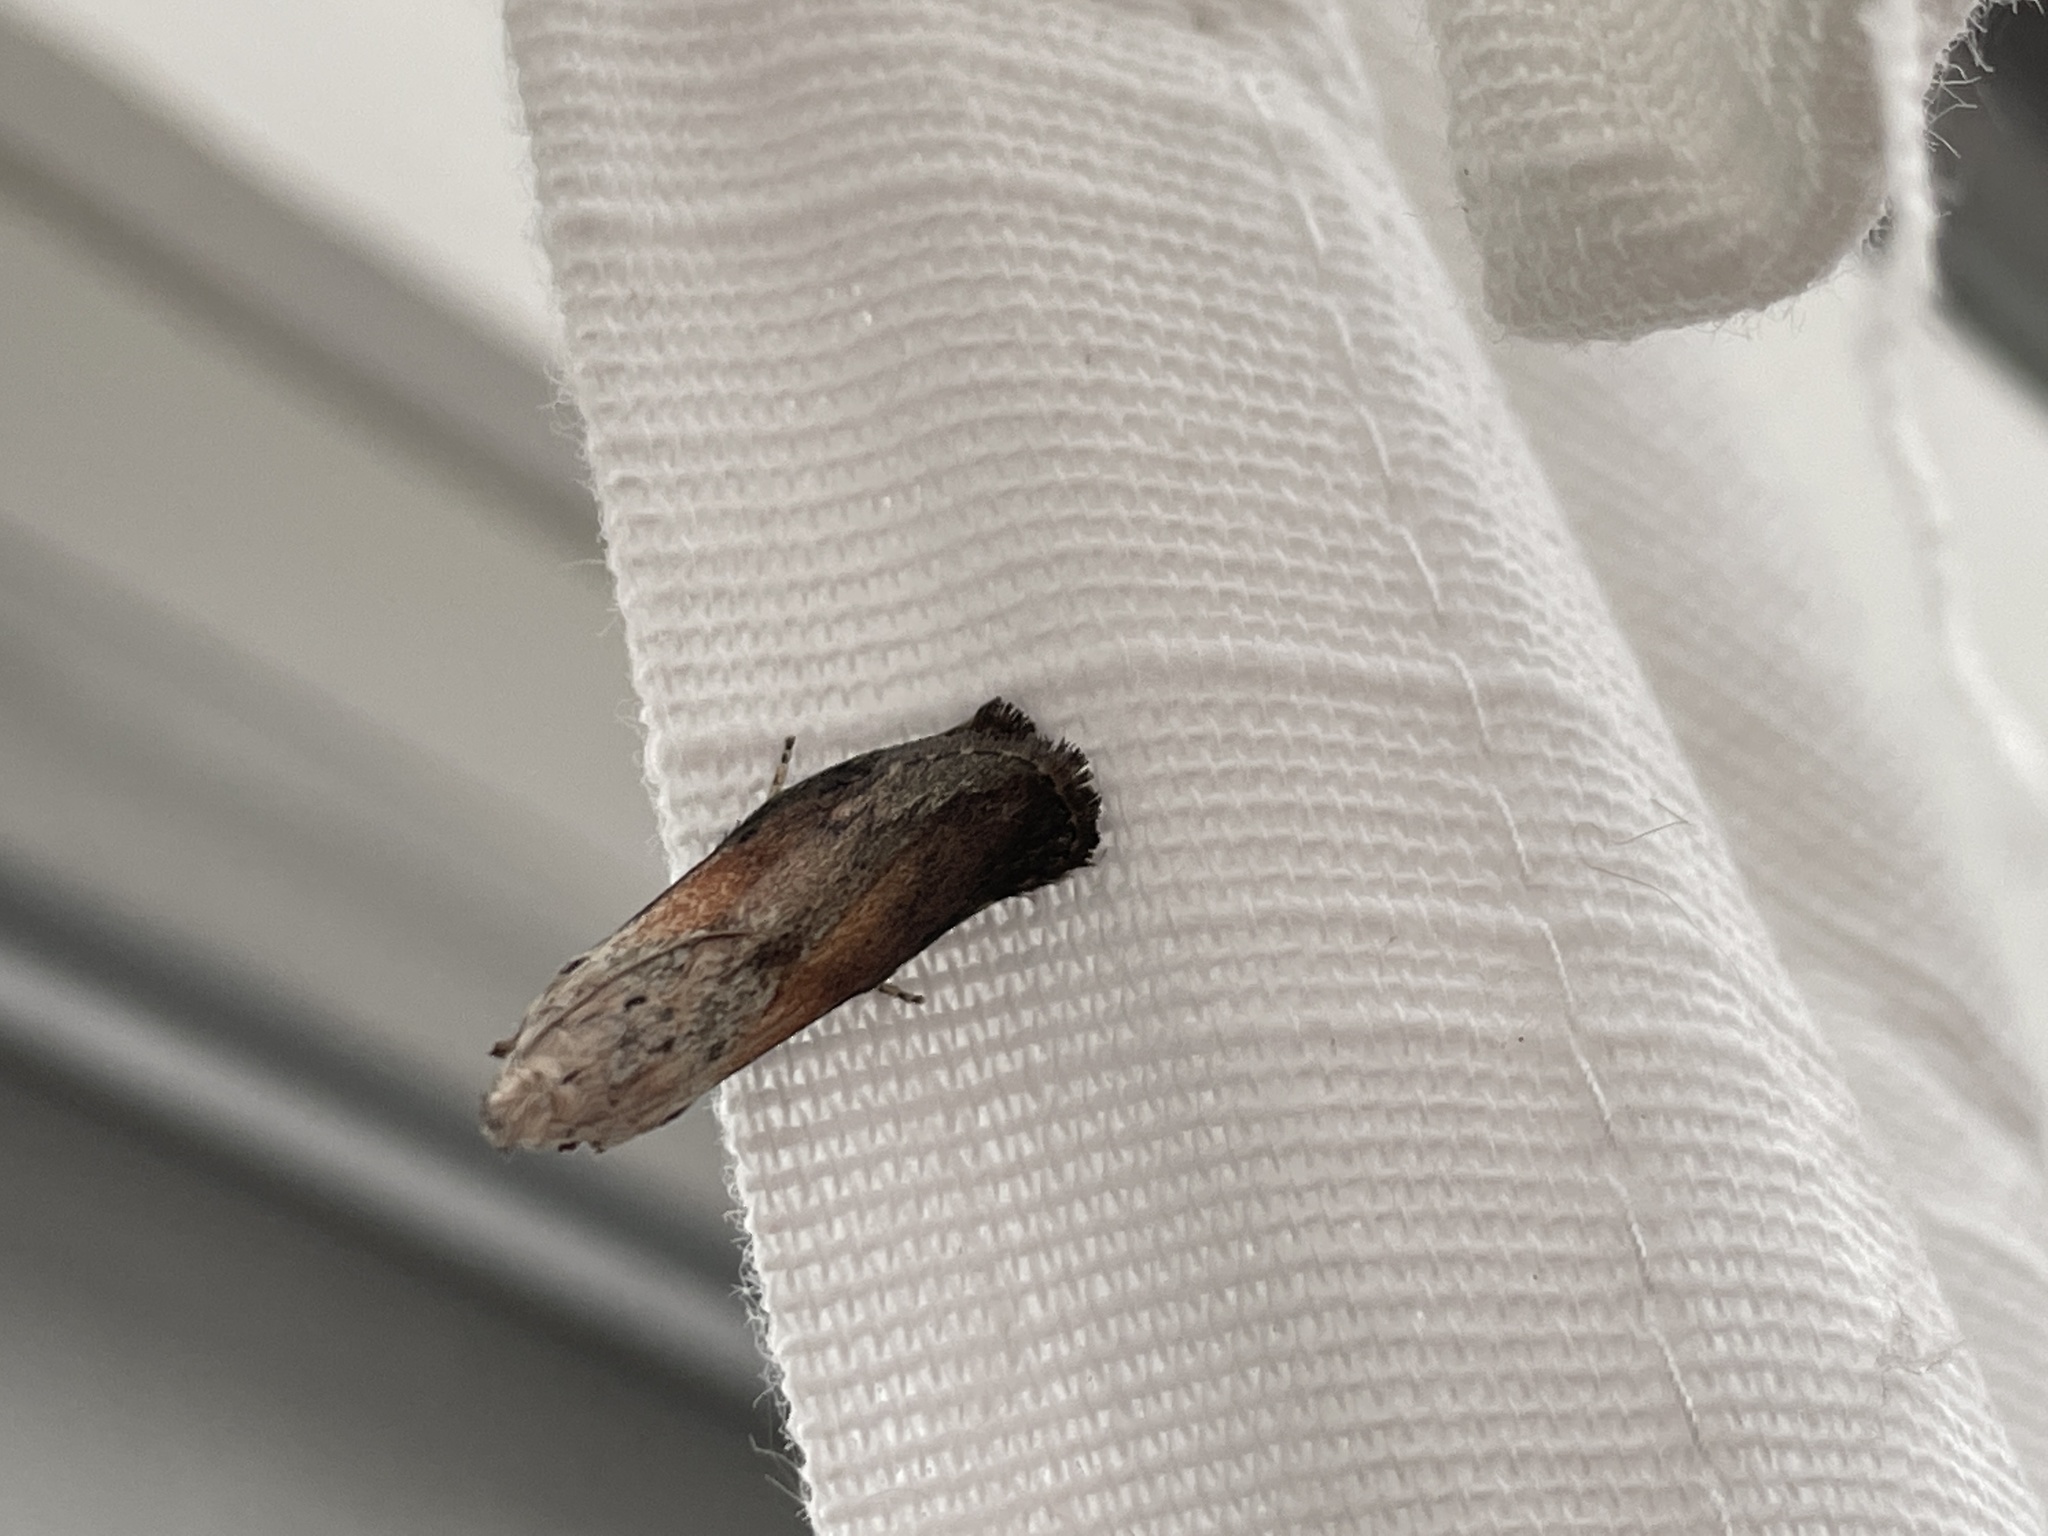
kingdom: Animalia
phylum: Arthropoda
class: Insecta
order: Lepidoptera
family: Pyralidae
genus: Aphomia
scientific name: Aphomia sociella
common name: Bee moth
